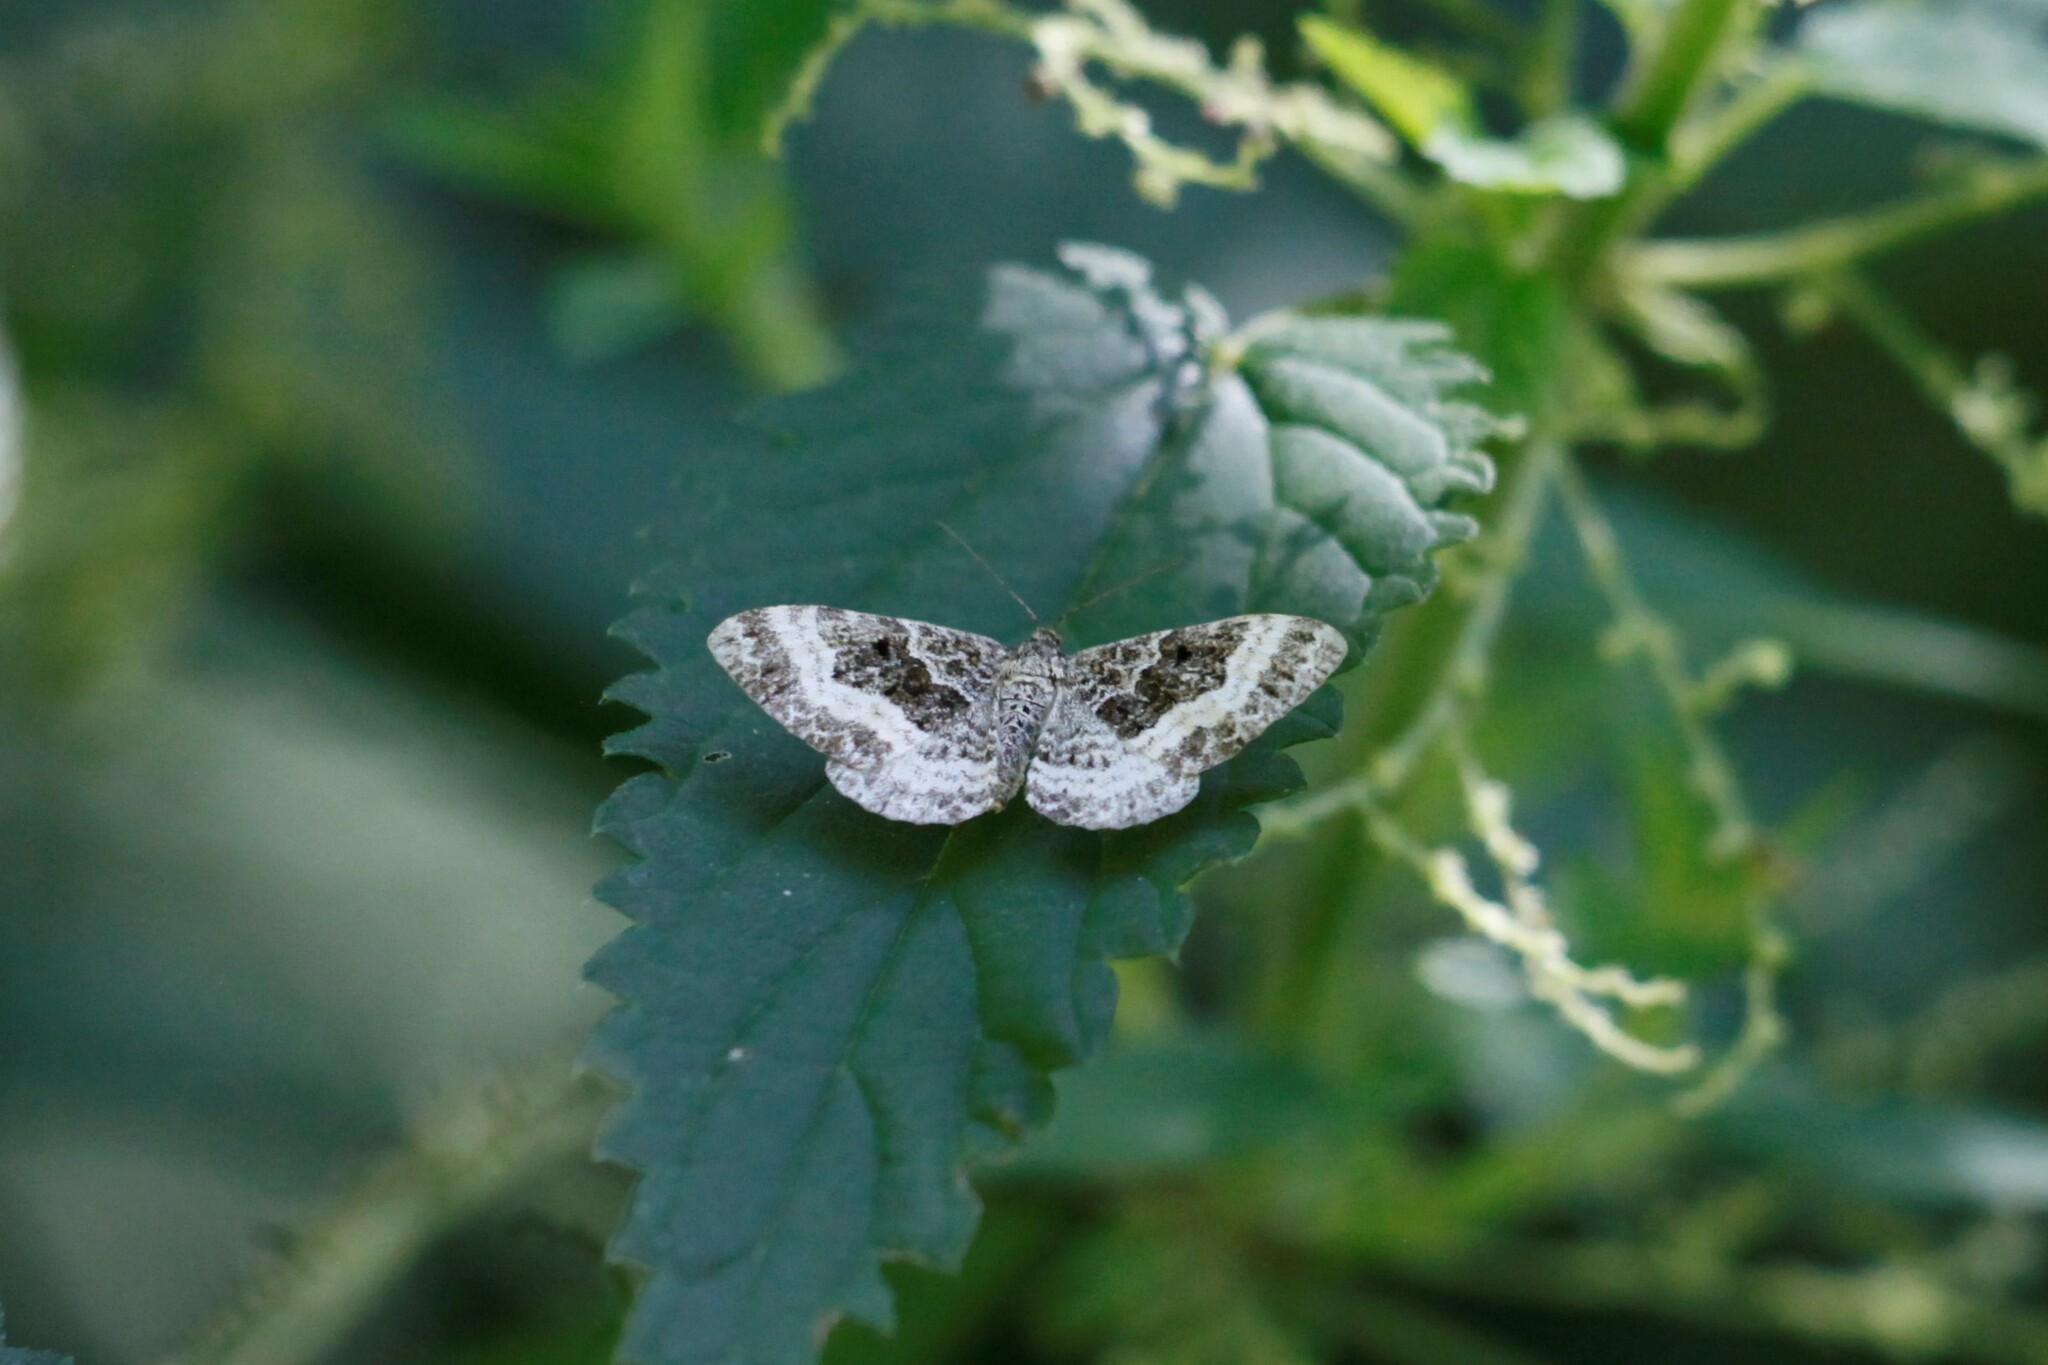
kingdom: Animalia
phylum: Arthropoda
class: Insecta
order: Lepidoptera
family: Geometridae
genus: Epirrhoe
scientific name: Epirrhoe alternata
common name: Common carpet
